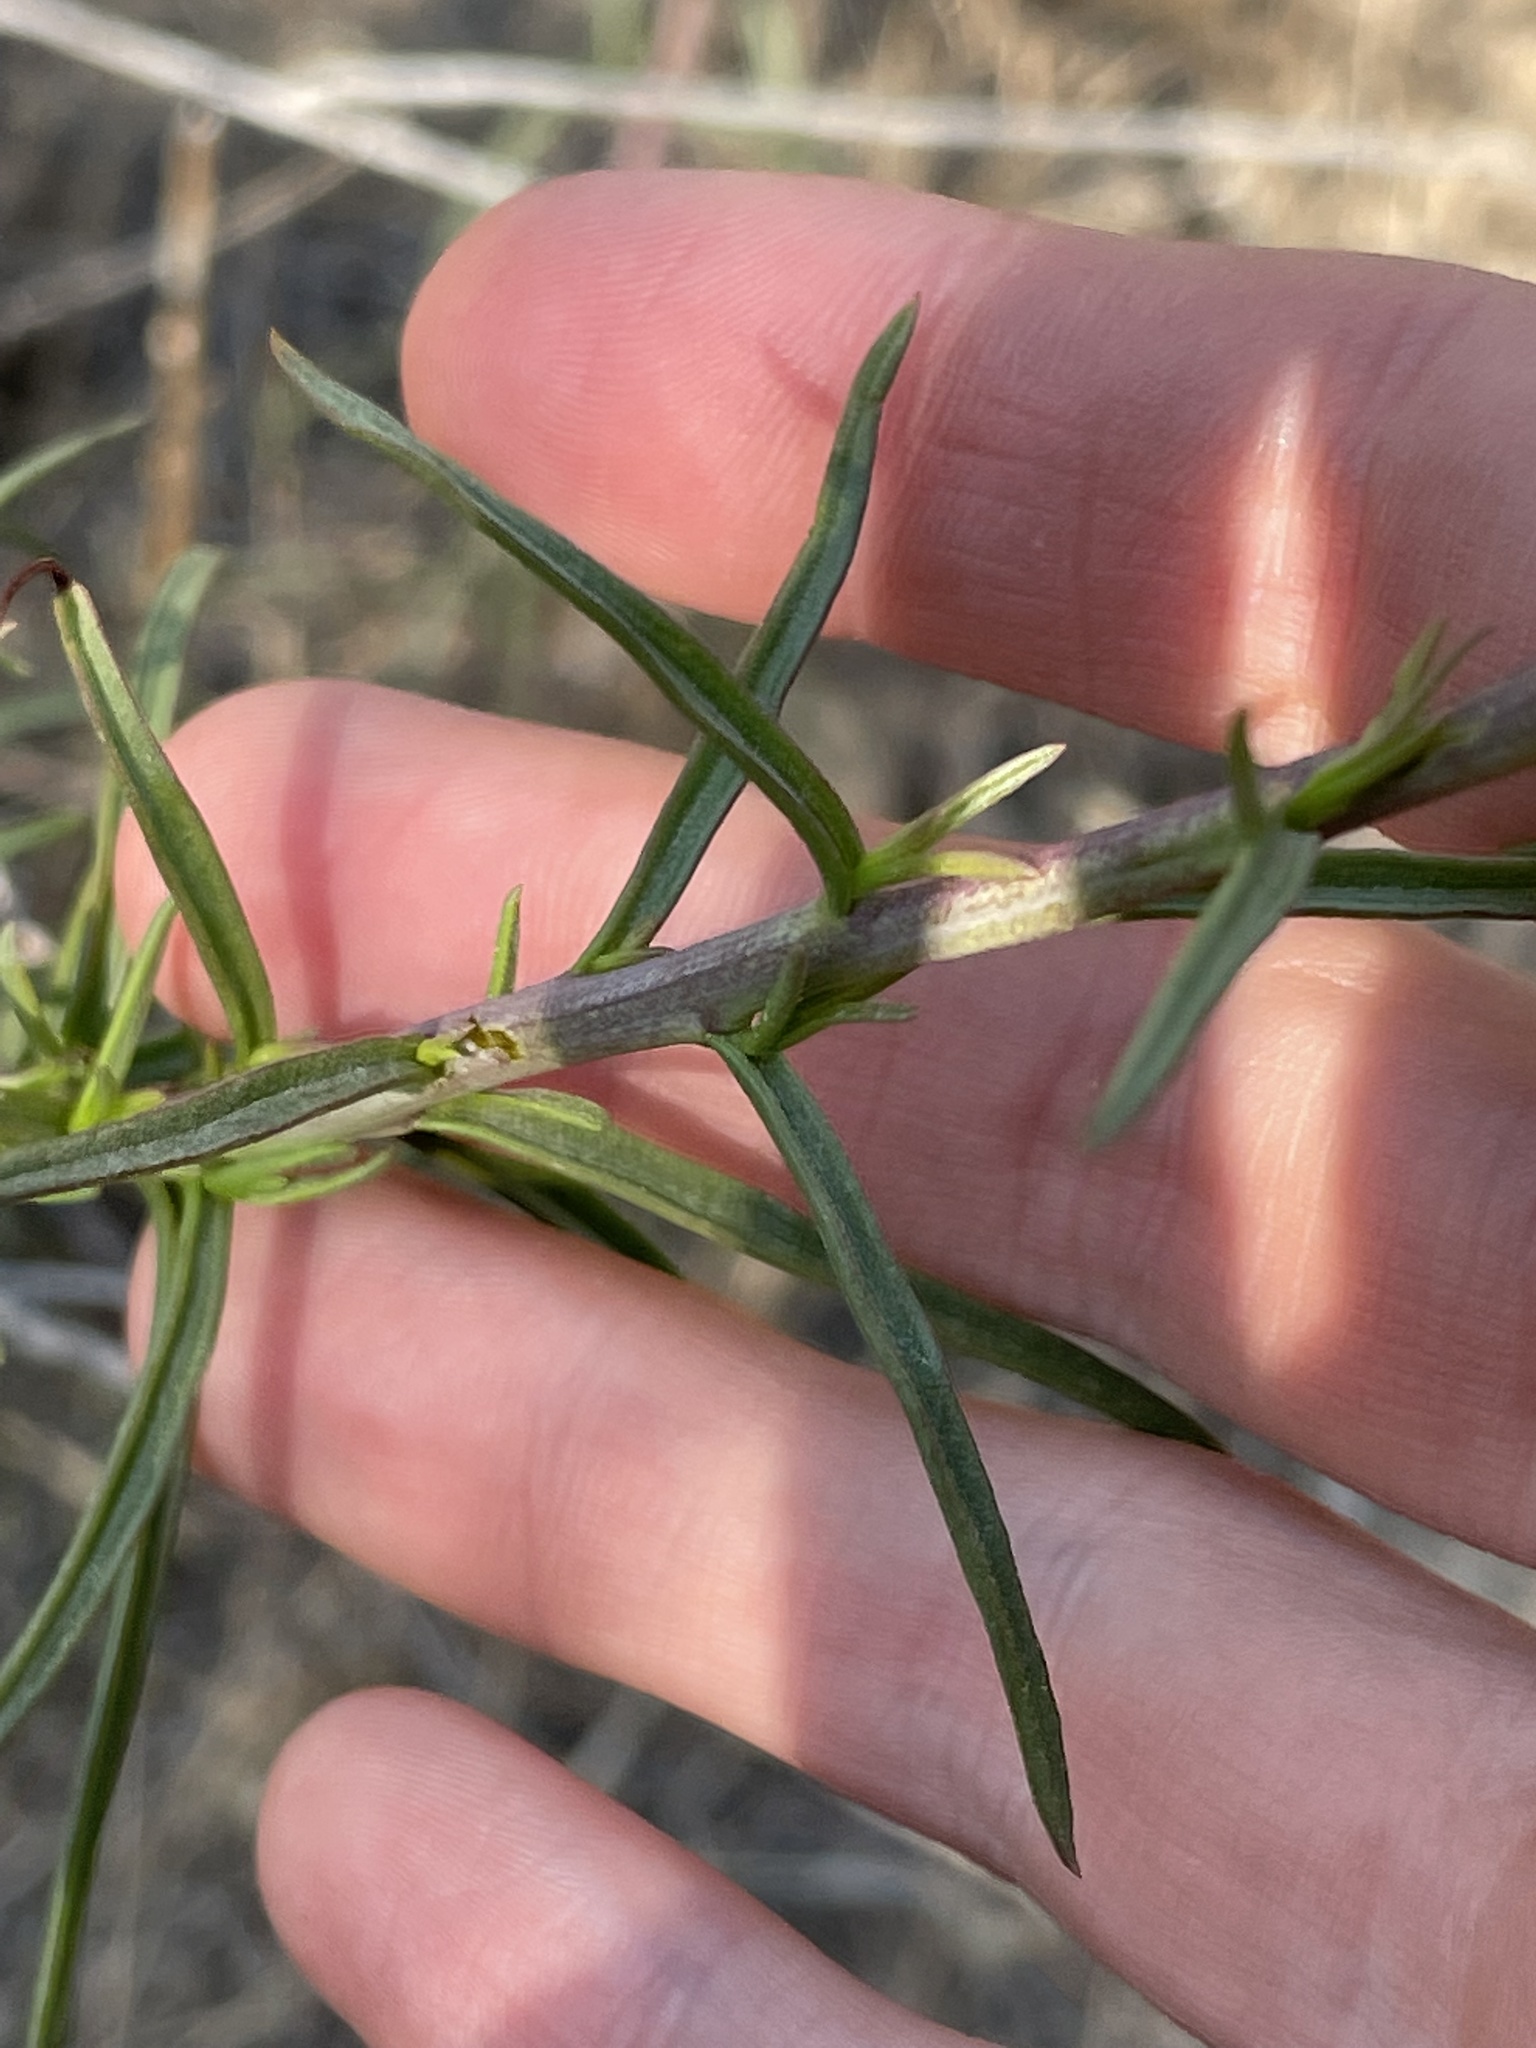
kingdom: Plantae
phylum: Tracheophyta
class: Magnoliopsida
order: Lamiales
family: Orobanchaceae
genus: Castilleja
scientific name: Castilleja linariifolia
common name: Wyoming paintbrush
